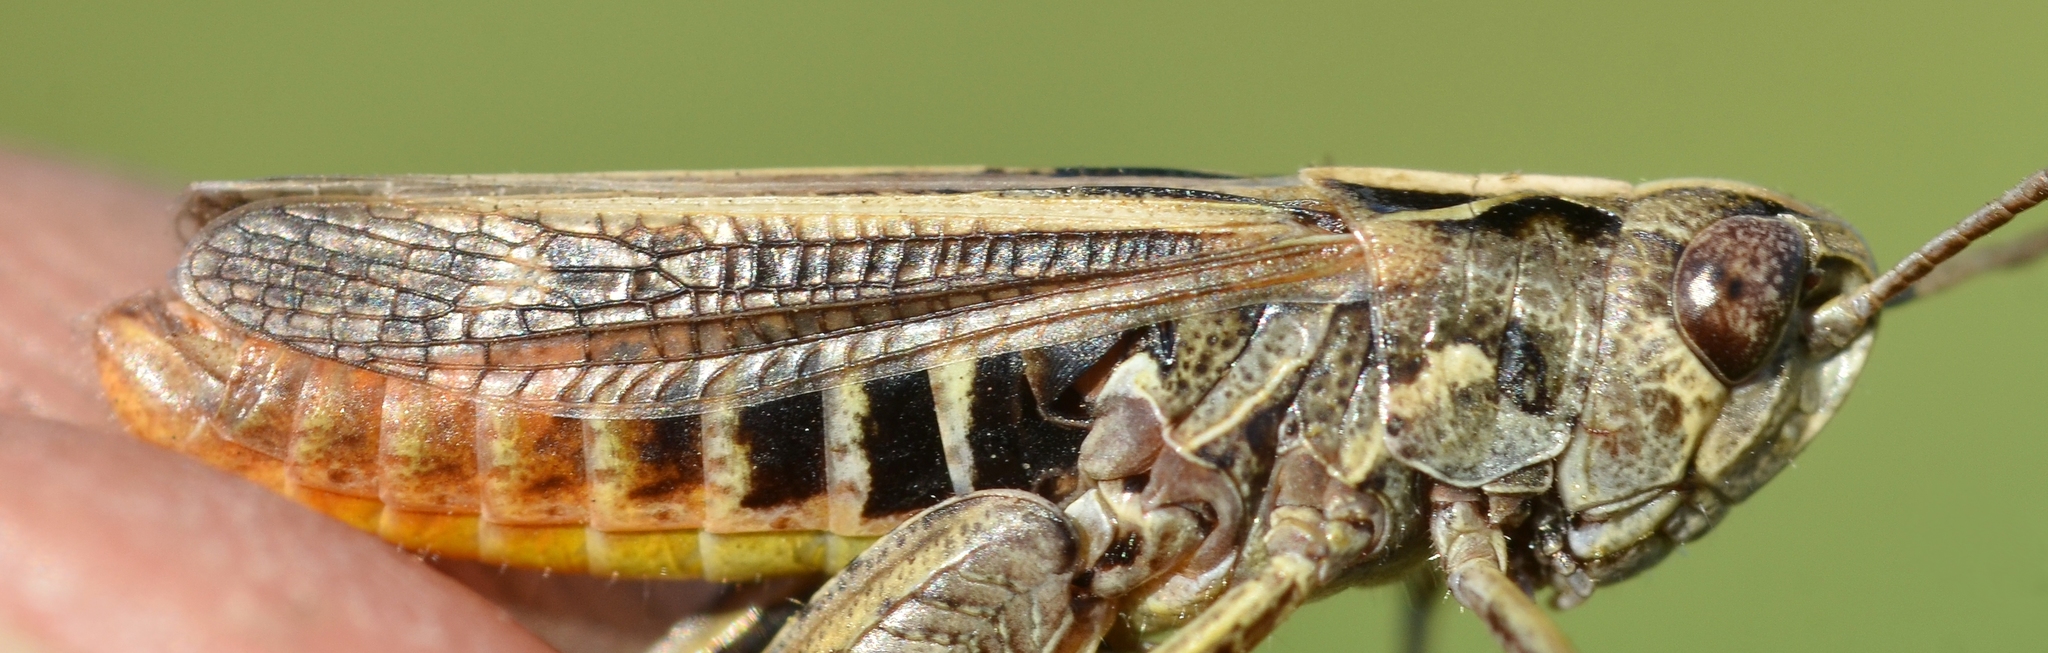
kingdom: Animalia
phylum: Arthropoda
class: Insecta
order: Orthoptera
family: Acrididae
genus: Stenobothrus
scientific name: Stenobothrus stigmaticus
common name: Lesser mottled grasshopper
